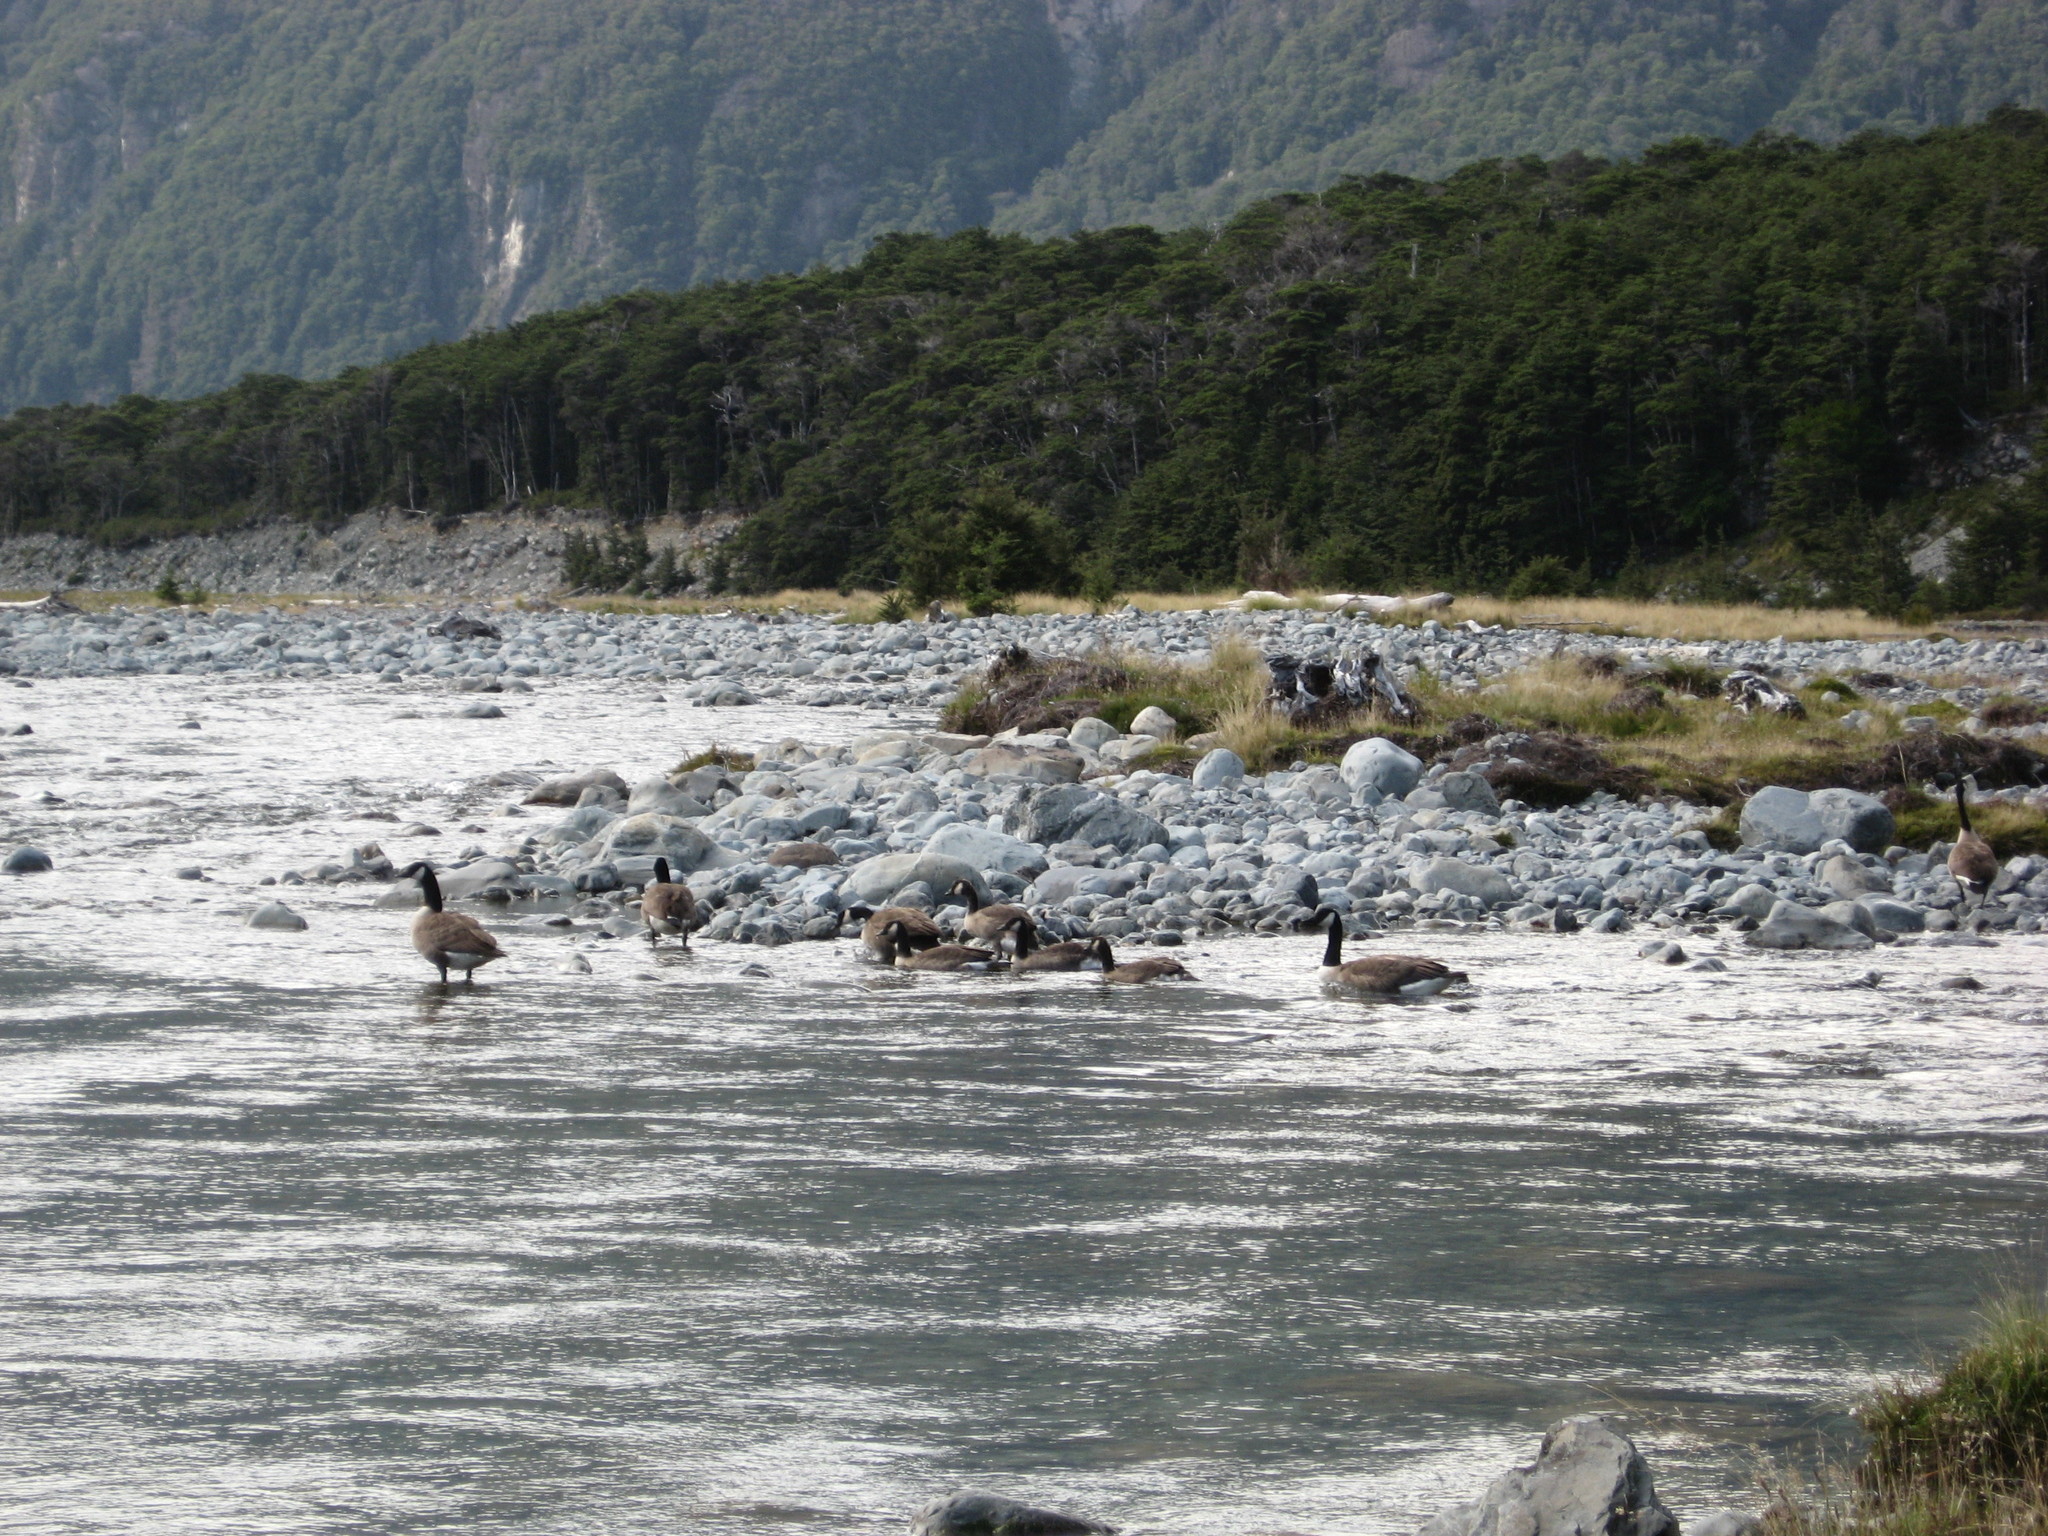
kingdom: Animalia
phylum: Chordata
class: Aves
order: Anseriformes
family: Anatidae
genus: Branta
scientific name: Branta canadensis
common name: Canada goose
